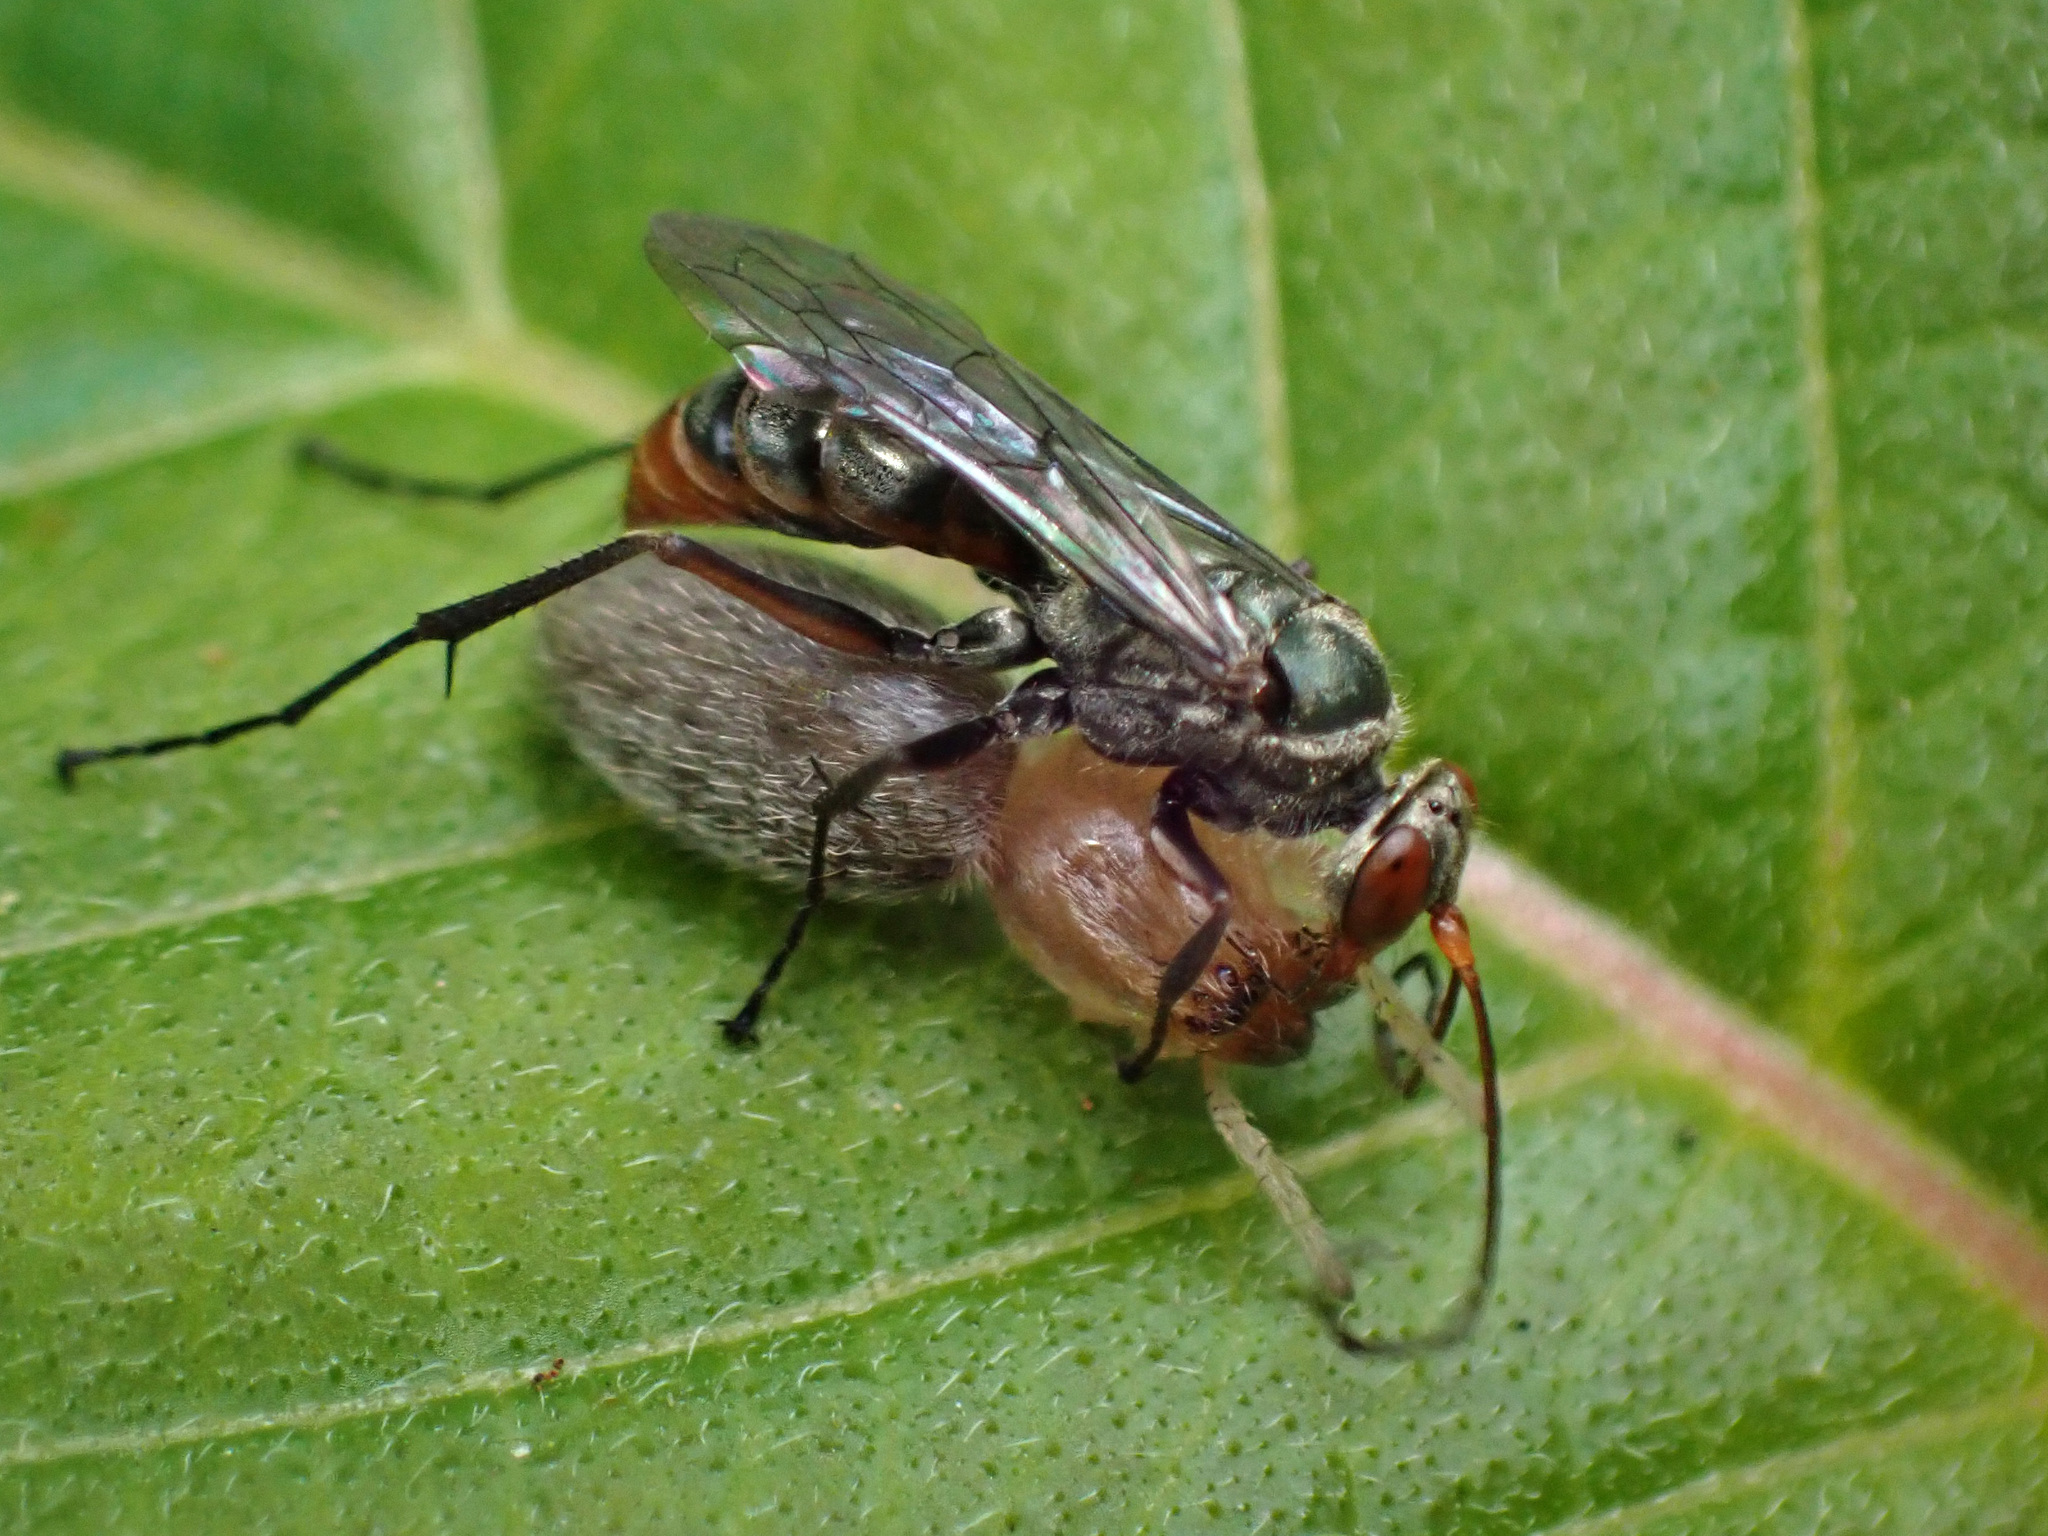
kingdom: Animalia
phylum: Arthropoda
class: Insecta
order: Hymenoptera
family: Pompilidae
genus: Ageniella
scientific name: Ageniella salti
